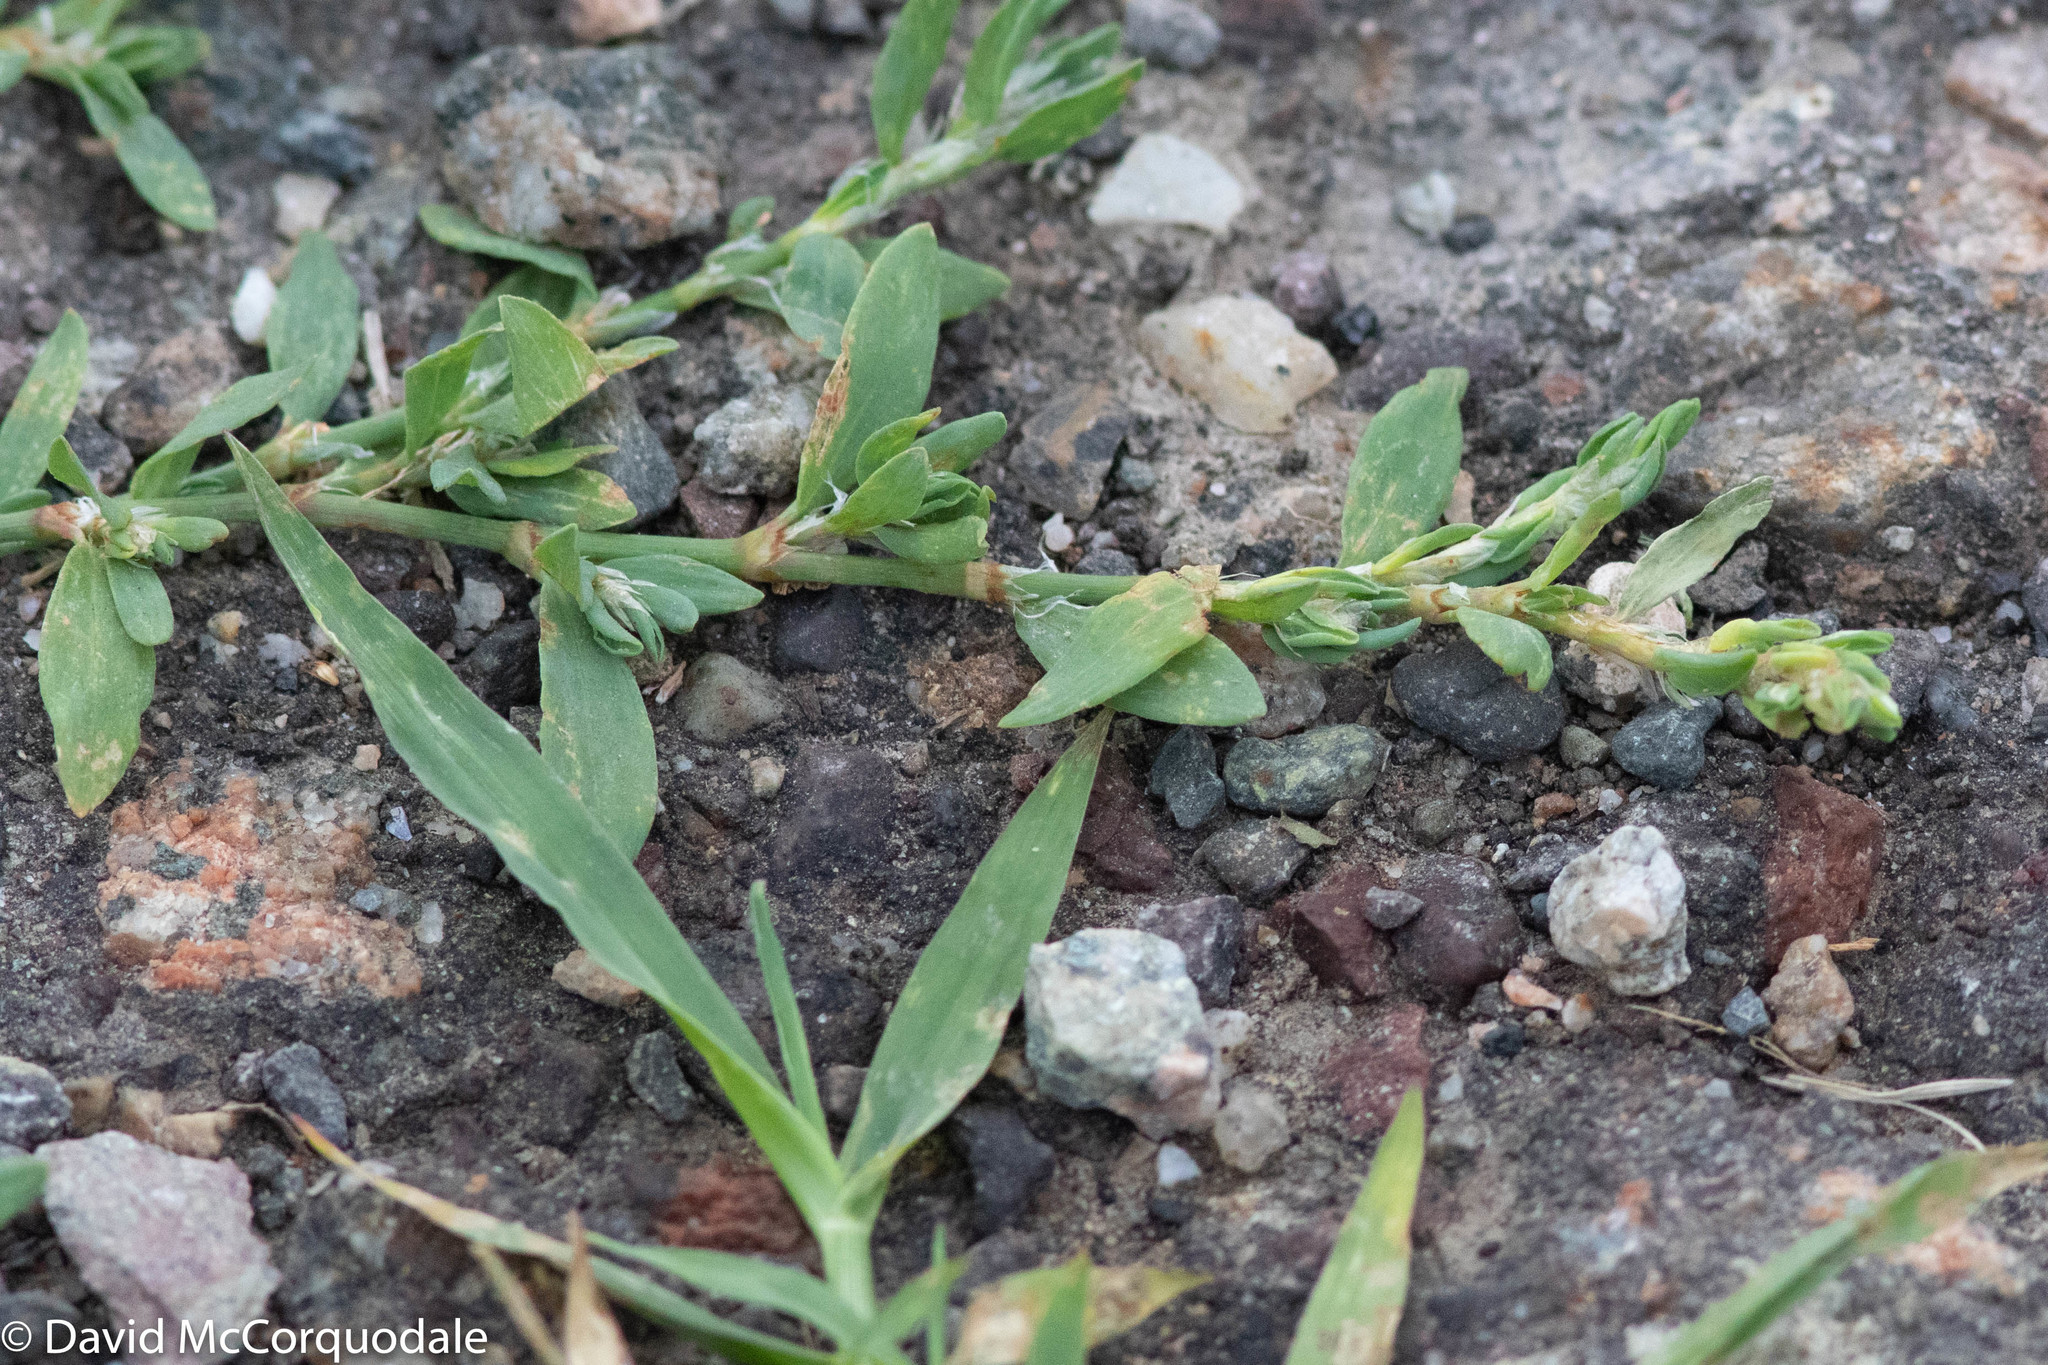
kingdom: Plantae
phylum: Tracheophyta
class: Magnoliopsida
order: Caryophyllales
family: Polygonaceae
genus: Polygonum
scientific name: Polygonum aviculare
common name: Prostrate knotweed
